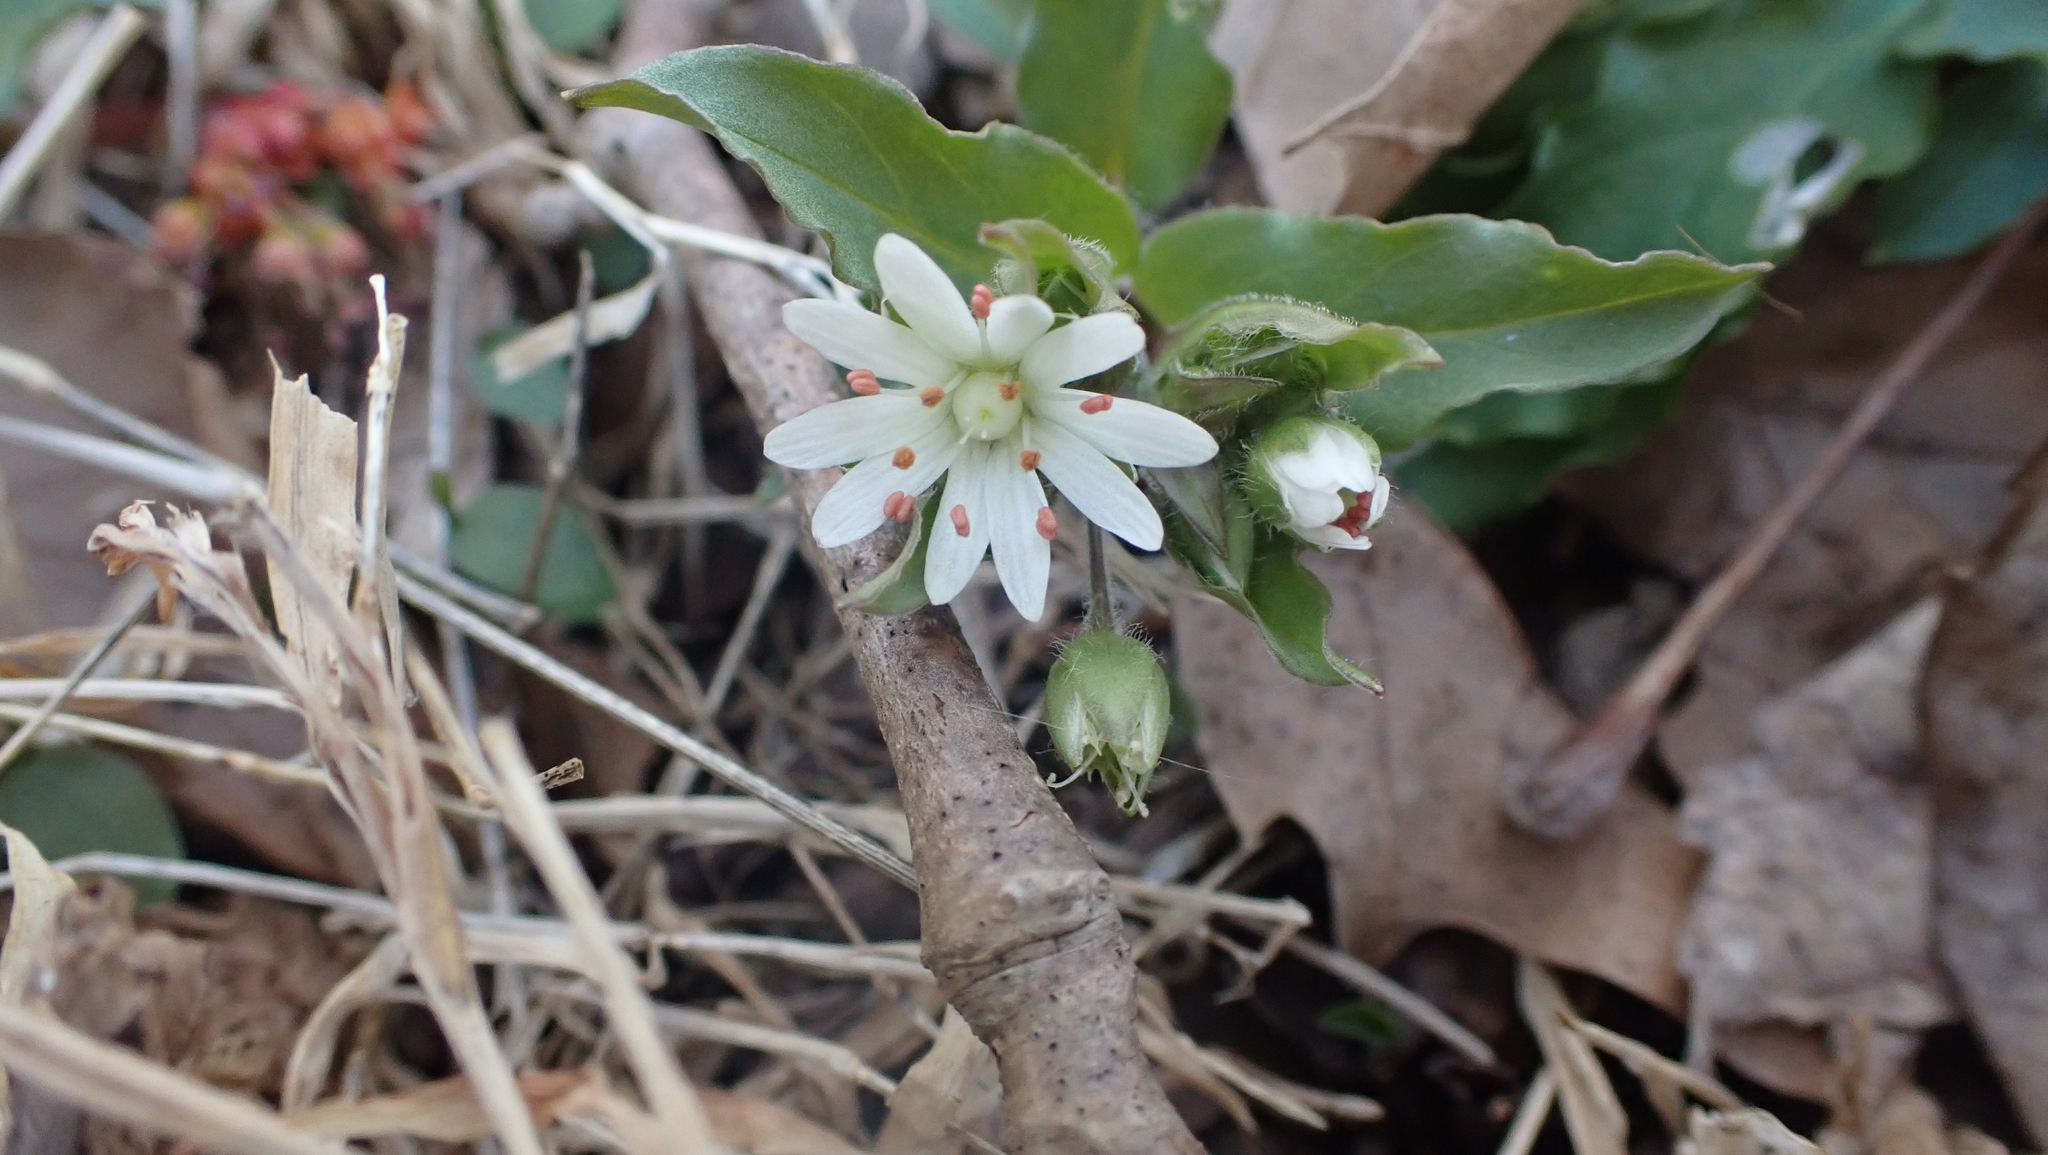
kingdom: Plantae
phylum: Tracheophyta
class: Magnoliopsida
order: Caryophyllales
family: Caryophyllaceae
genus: Stellaria
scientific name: Stellaria pubera
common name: Star chickweed
